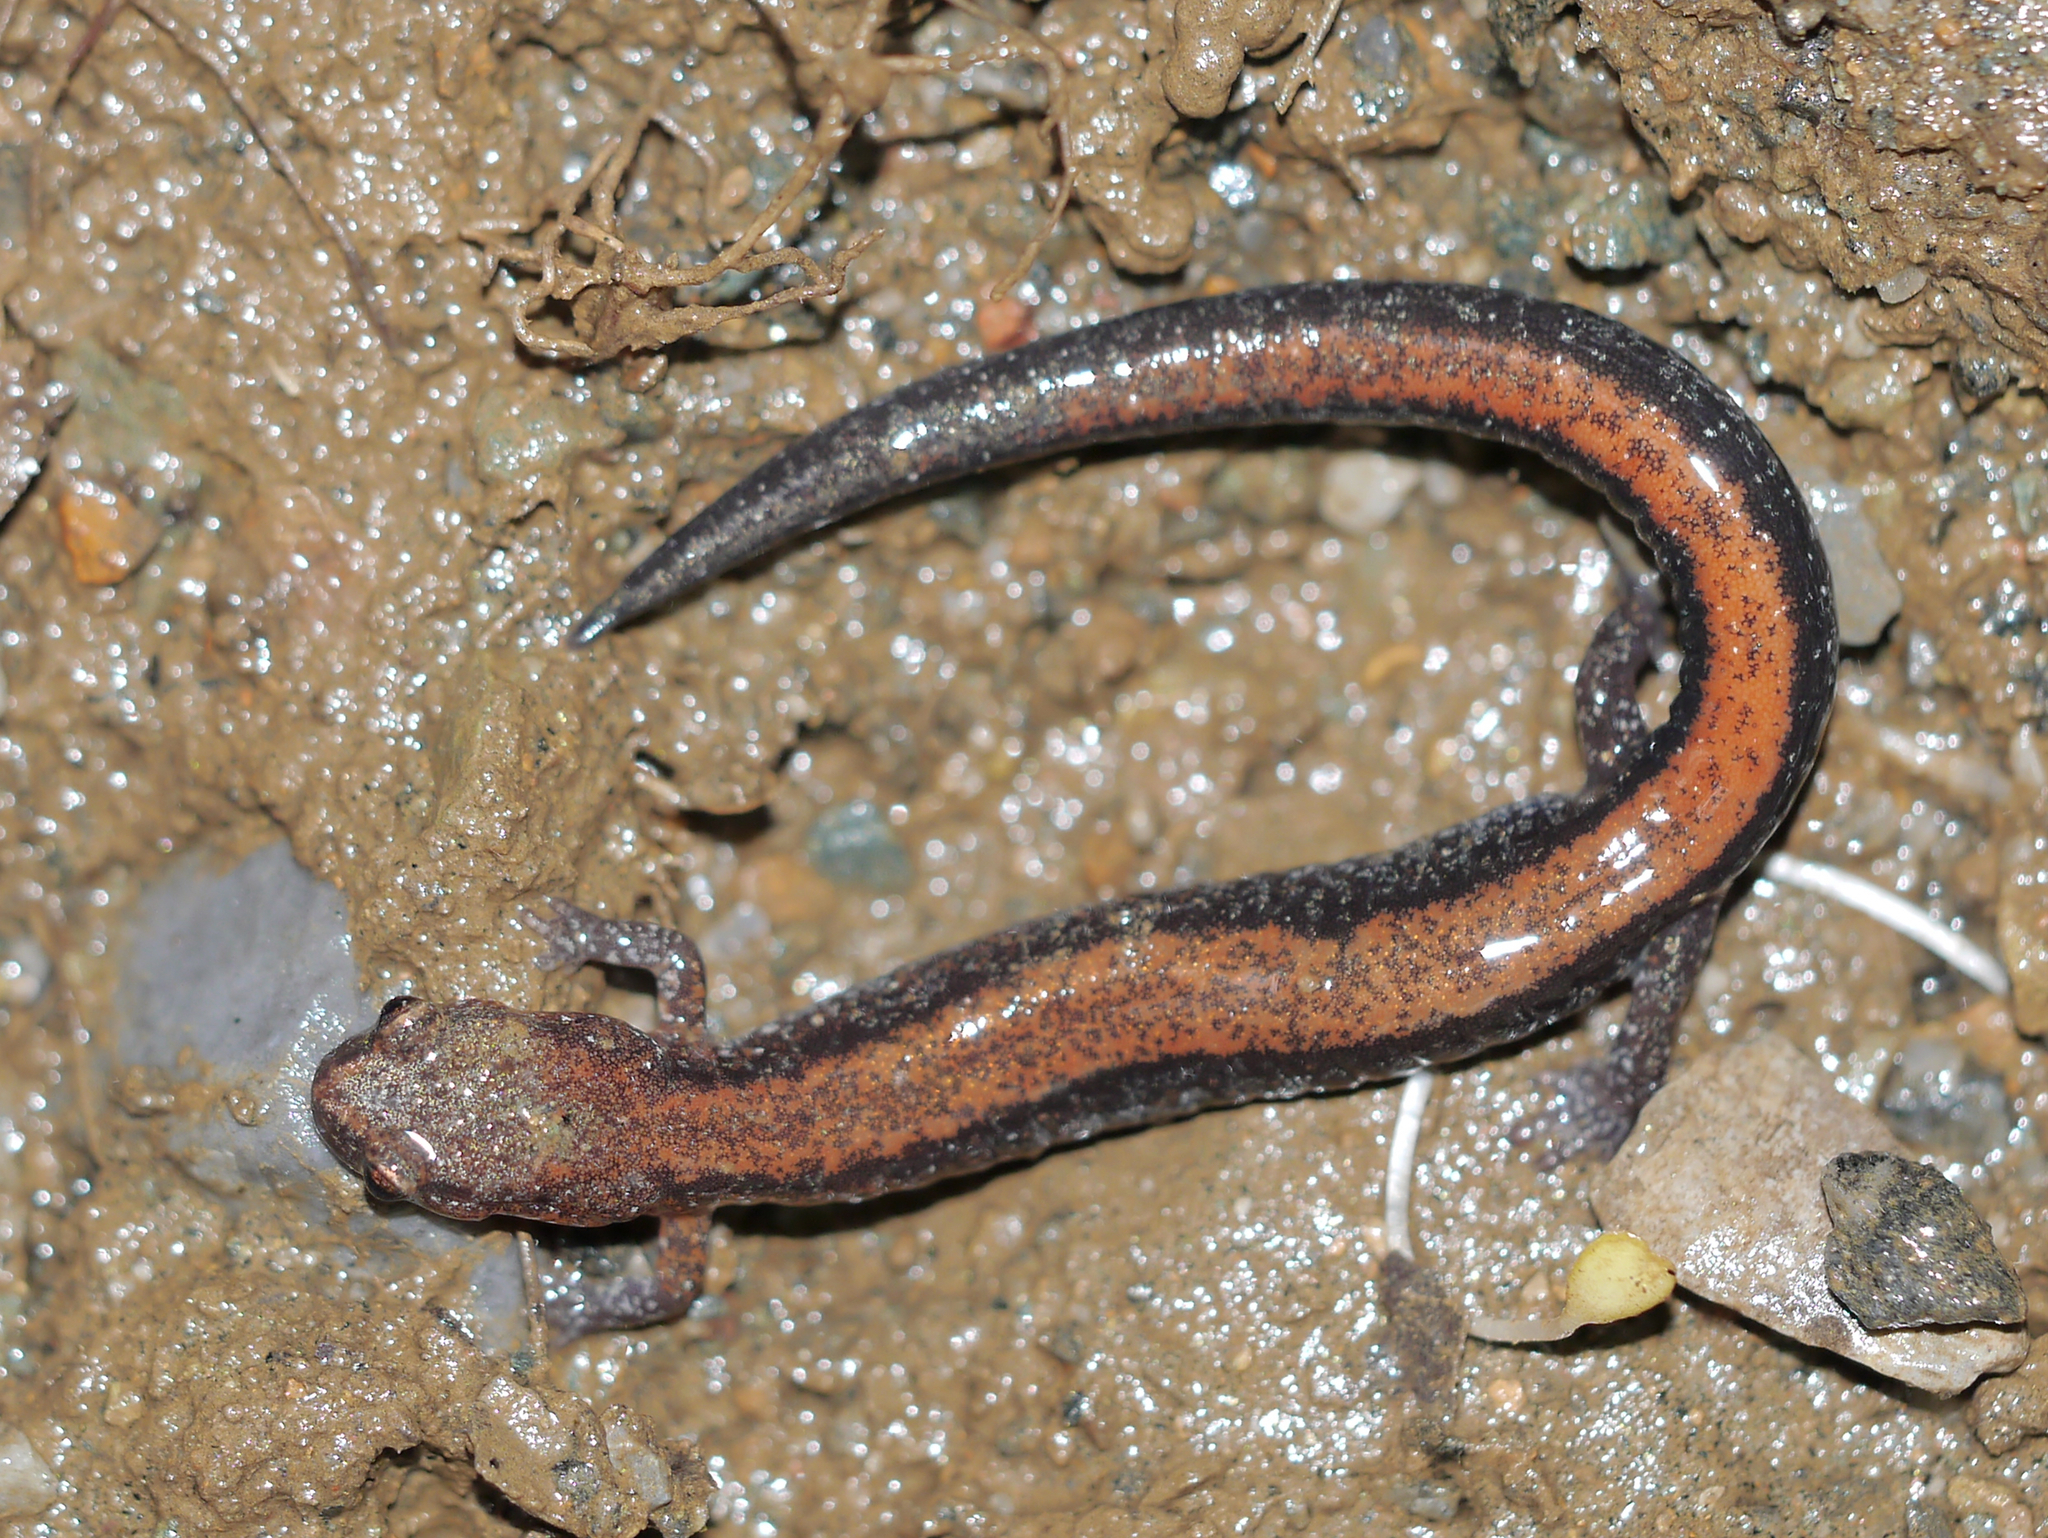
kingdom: Animalia
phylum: Chordata
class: Amphibia
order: Caudata
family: Plethodontidae
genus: Plethodon
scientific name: Plethodon cinereus
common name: Redback salamander
